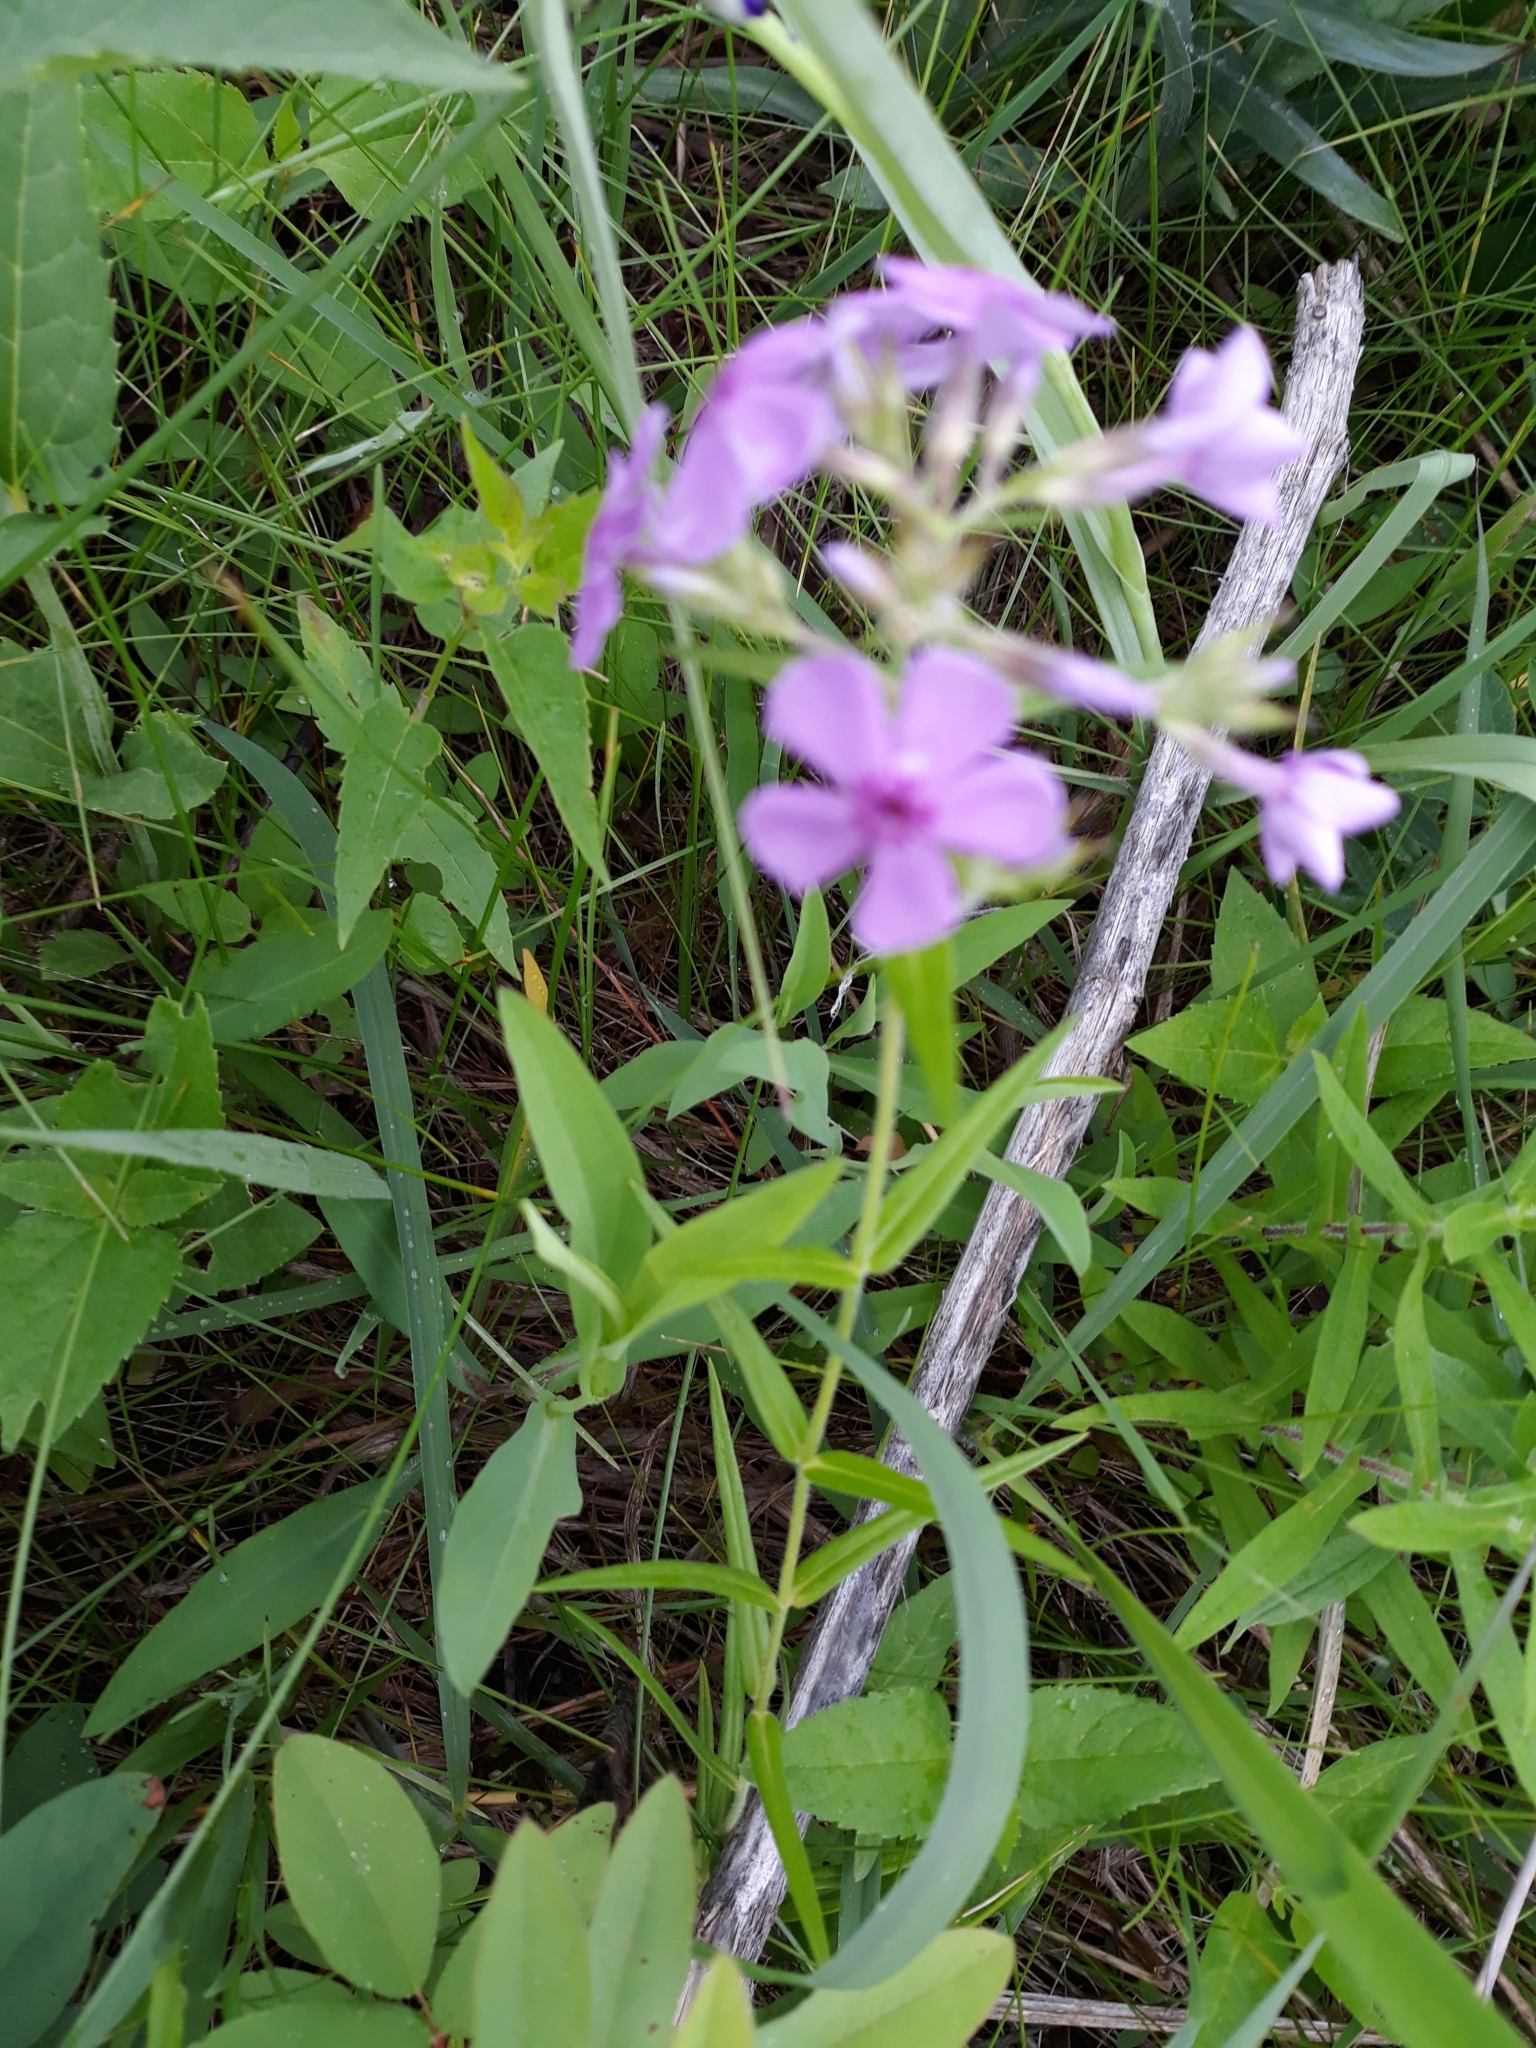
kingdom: Plantae
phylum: Tracheophyta
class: Magnoliopsida
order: Ericales
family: Polemoniaceae
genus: Phlox
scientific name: Phlox pilosa
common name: Prairie phlox
